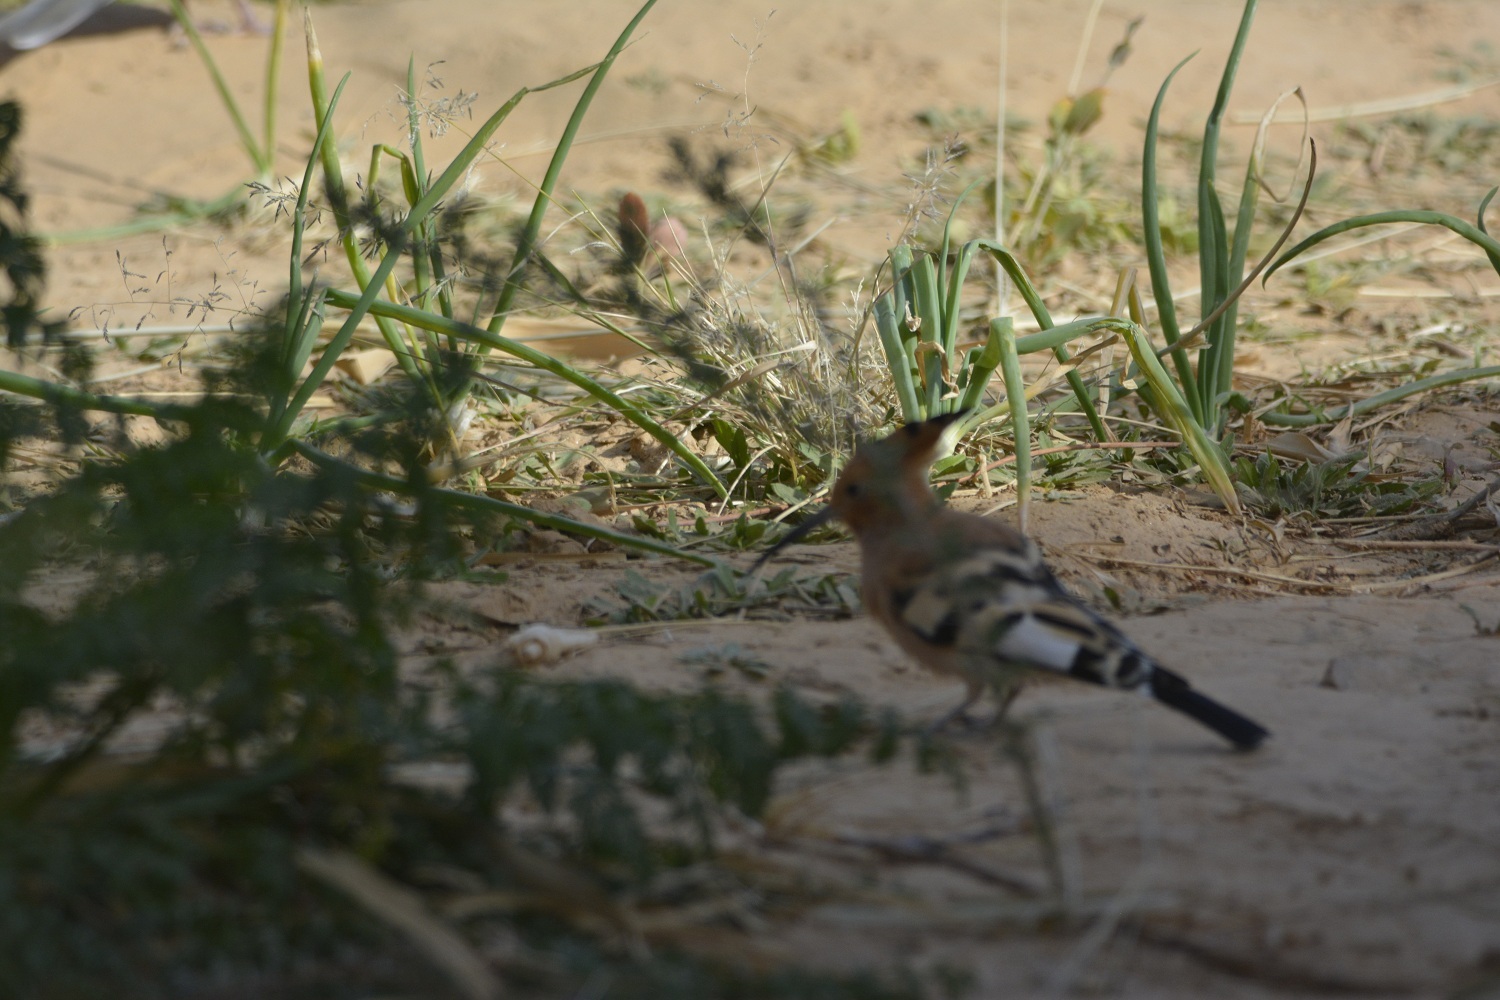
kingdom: Animalia
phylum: Chordata
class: Aves
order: Bucerotiformes
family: Upupidae
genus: Upupa
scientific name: Upupa epops
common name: Eurasian hoopoe
